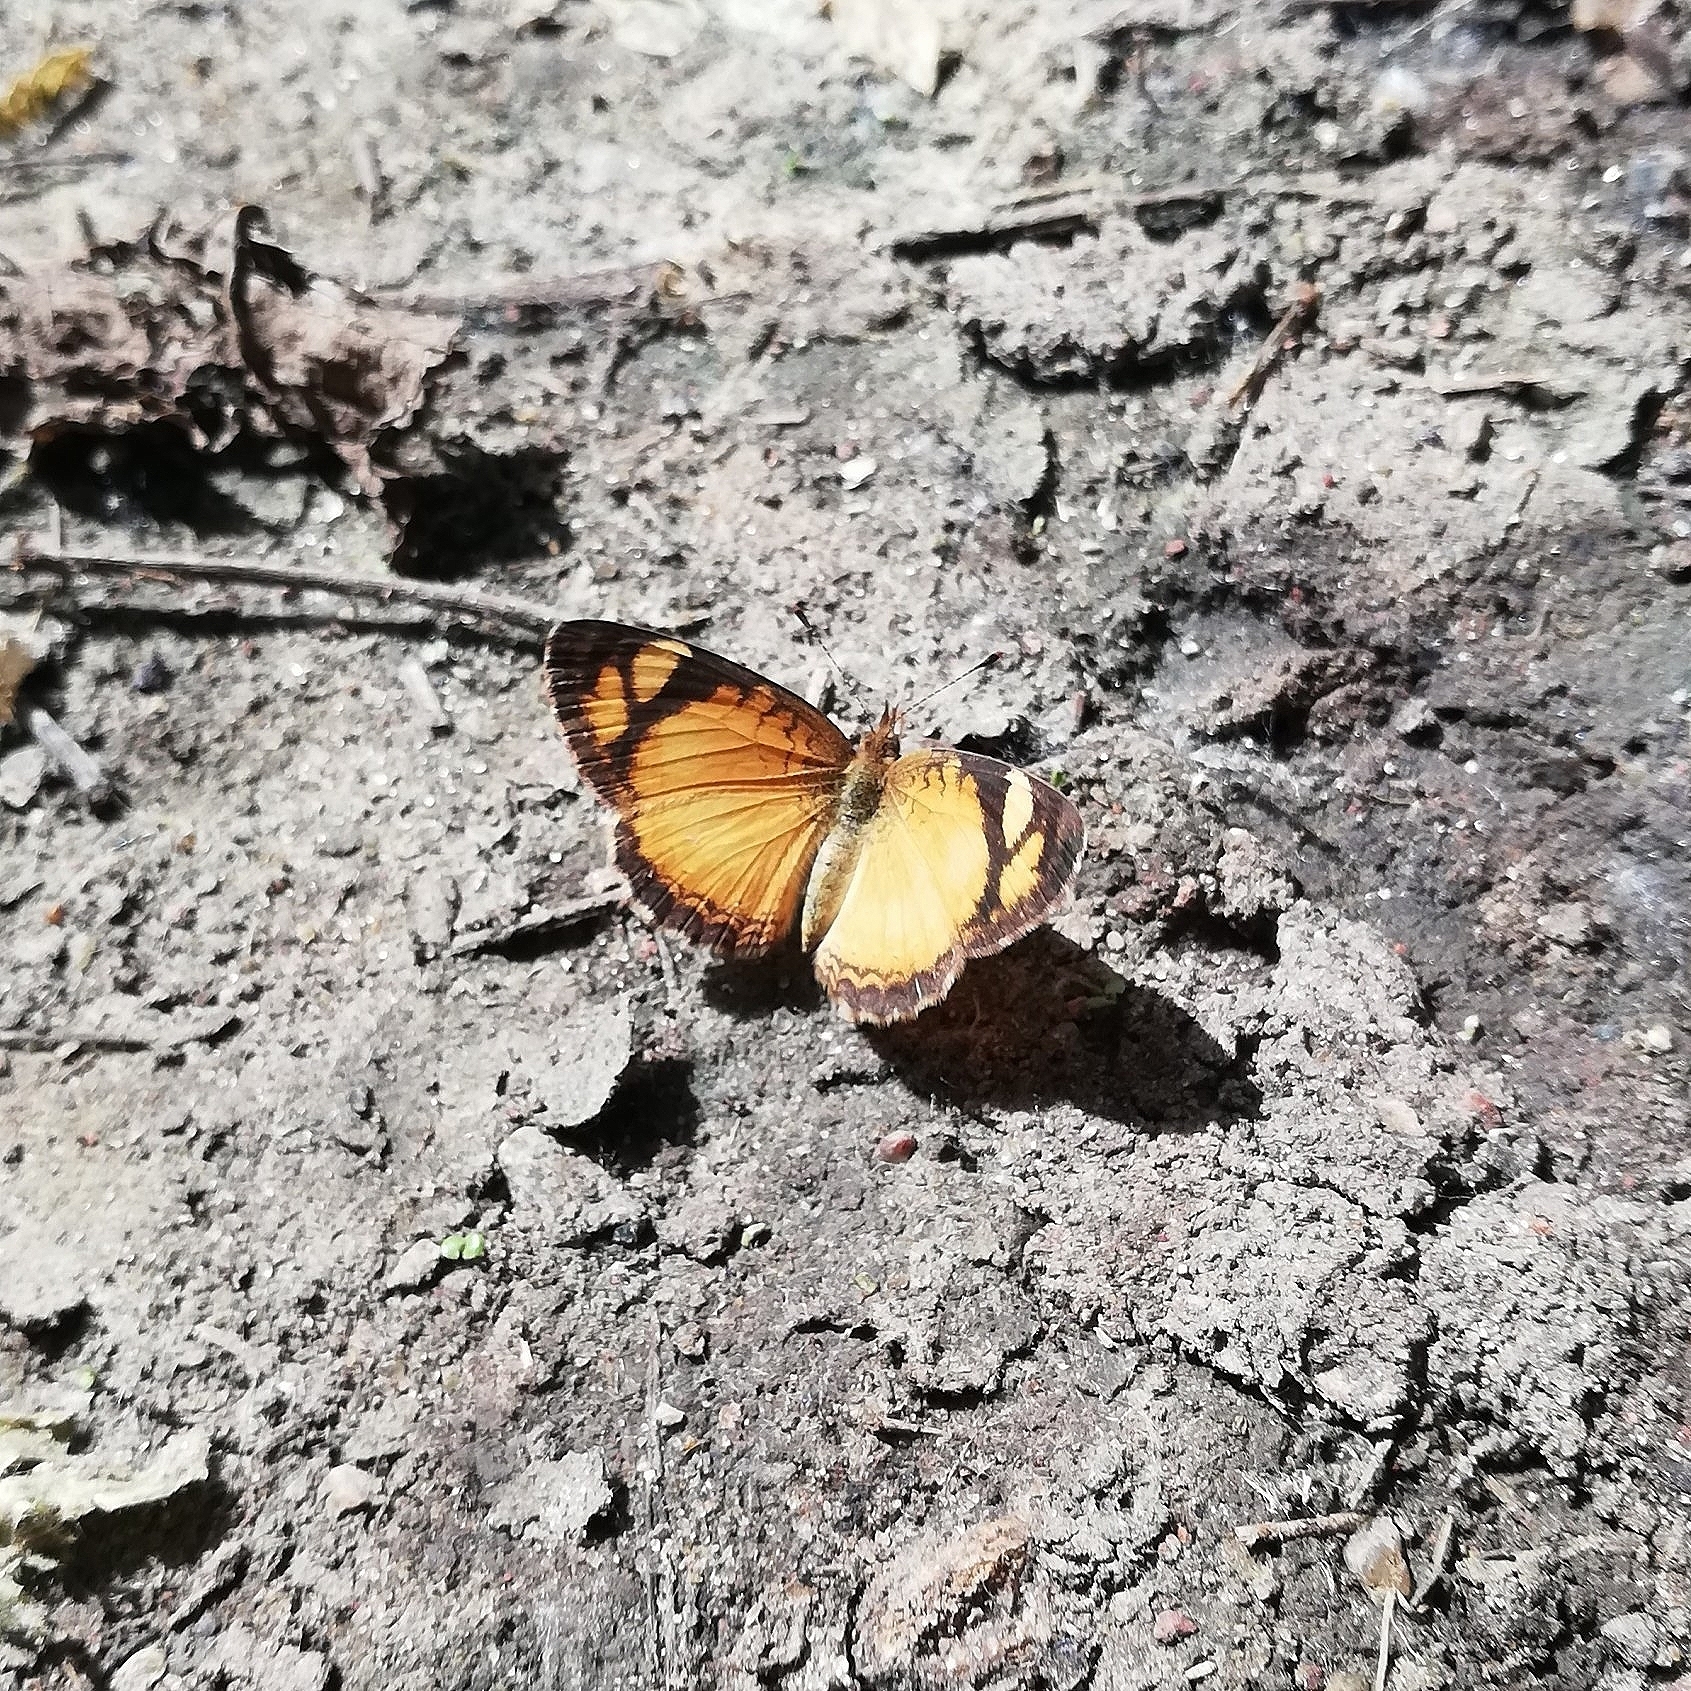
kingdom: Animalia
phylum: Arthropoda
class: Insecta
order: Lepidoptera
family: Nymphalidae
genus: Tegosa
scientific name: Tegosa claudina
